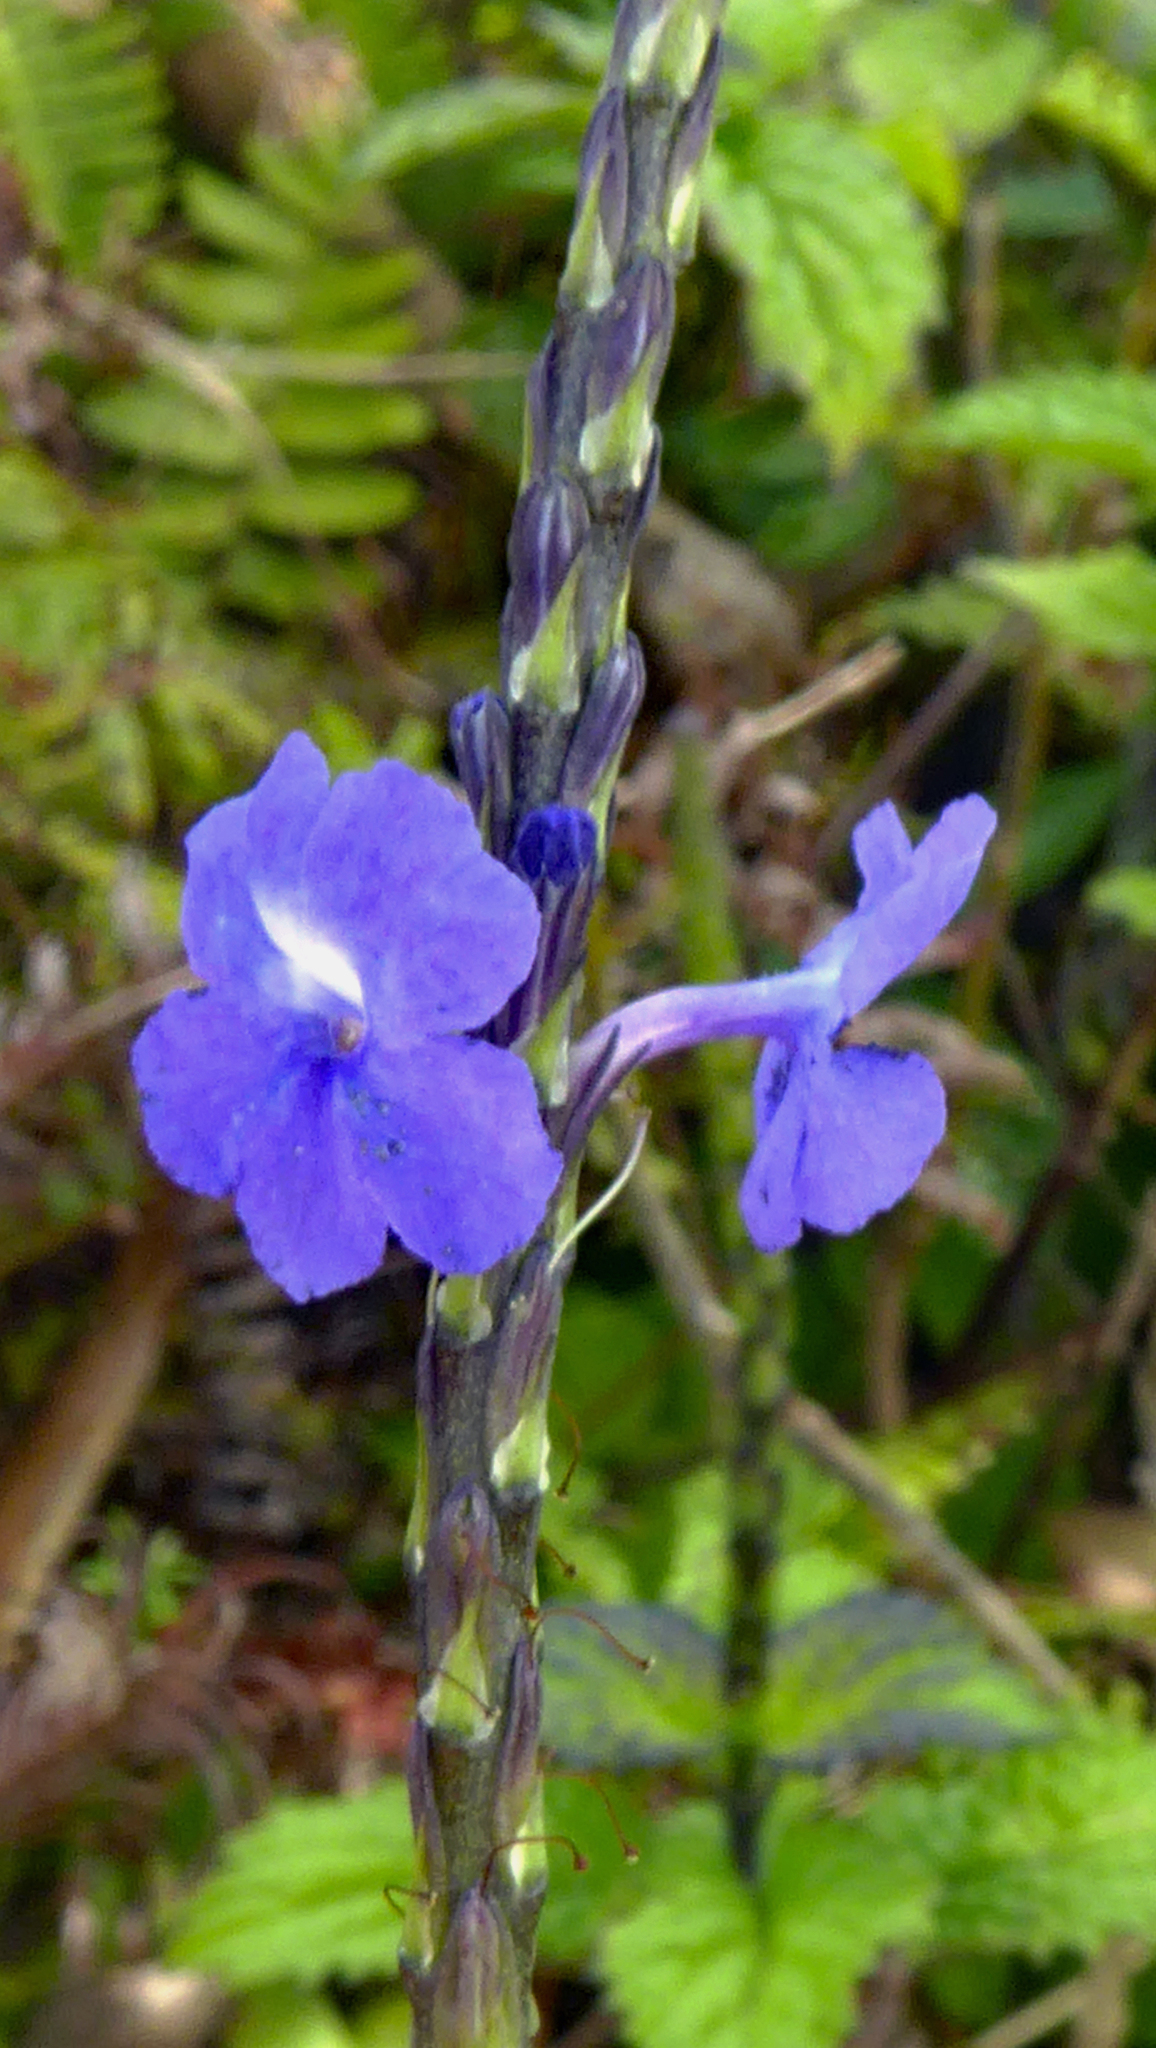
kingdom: Plantae
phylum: Tracheophyta
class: Magnoliopsida
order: Lamiales
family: Verbenaceae
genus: Stachytarpheta
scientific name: Stachytarpheta cayennensis
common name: Cayenne porterweed
